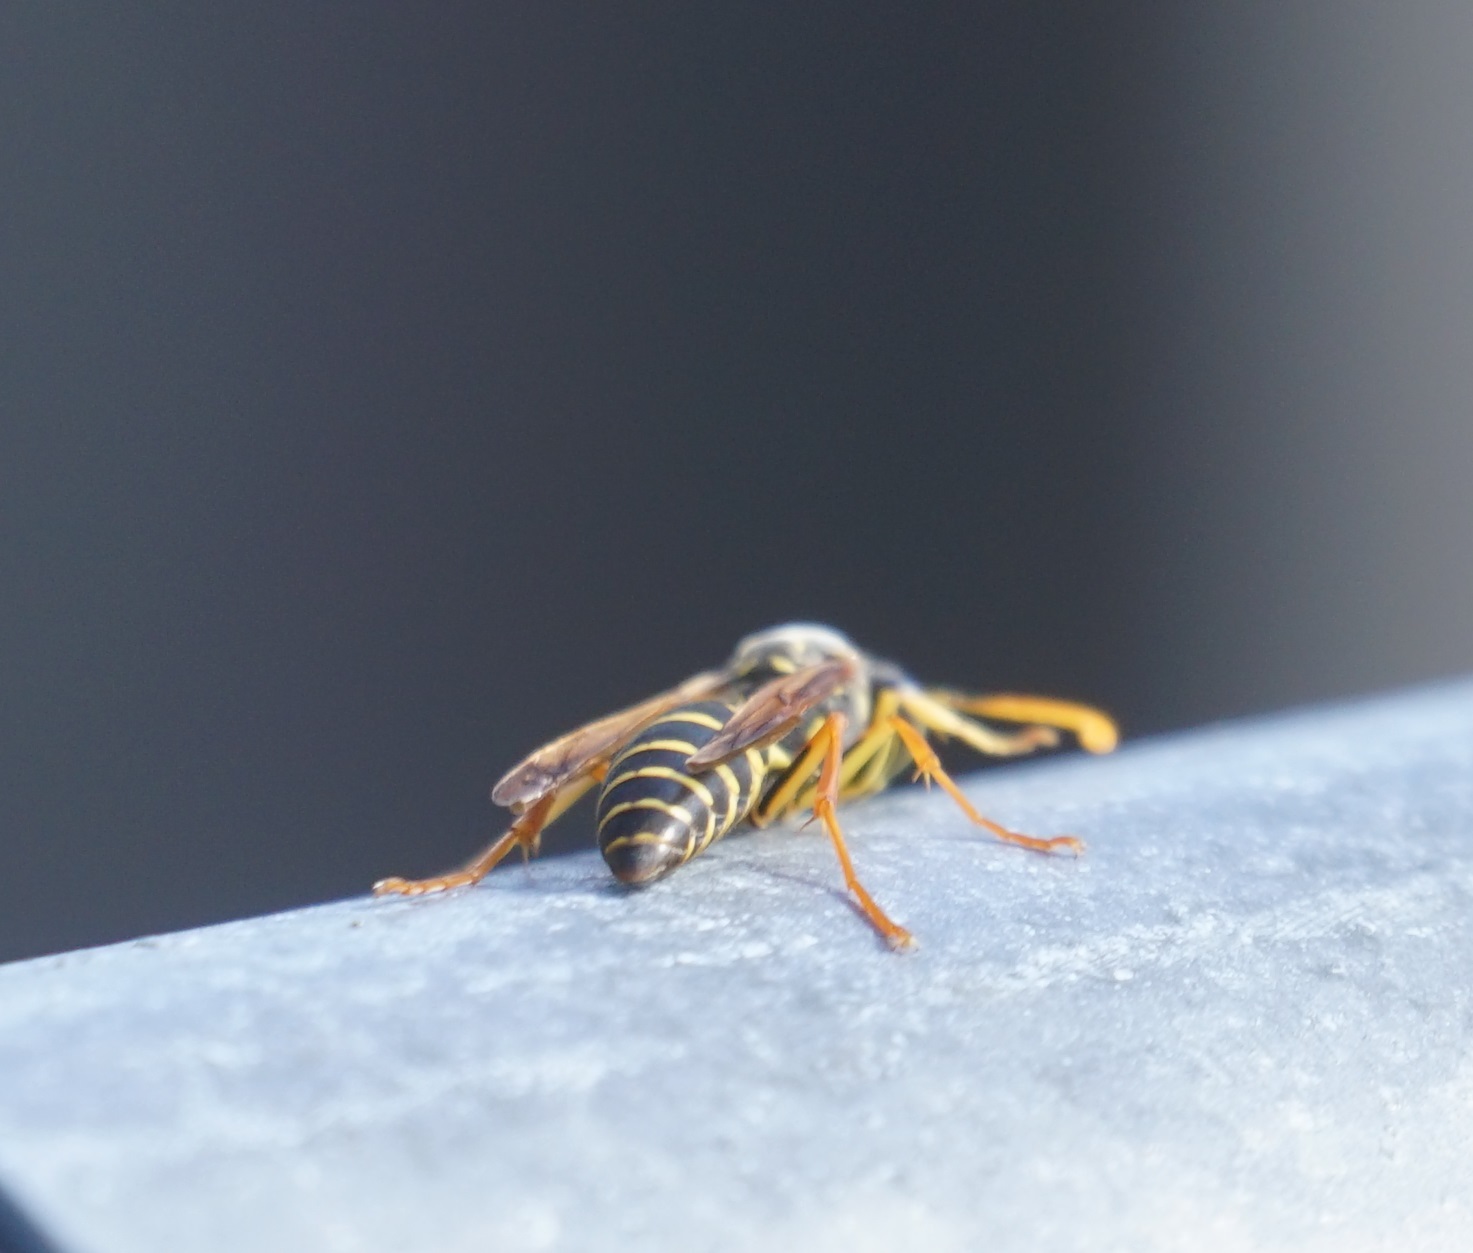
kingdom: Animalia
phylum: Arthropoda
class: Insecta
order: Hymenoptera
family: Eumenidae
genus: Polistes
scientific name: Polistes chinensis
